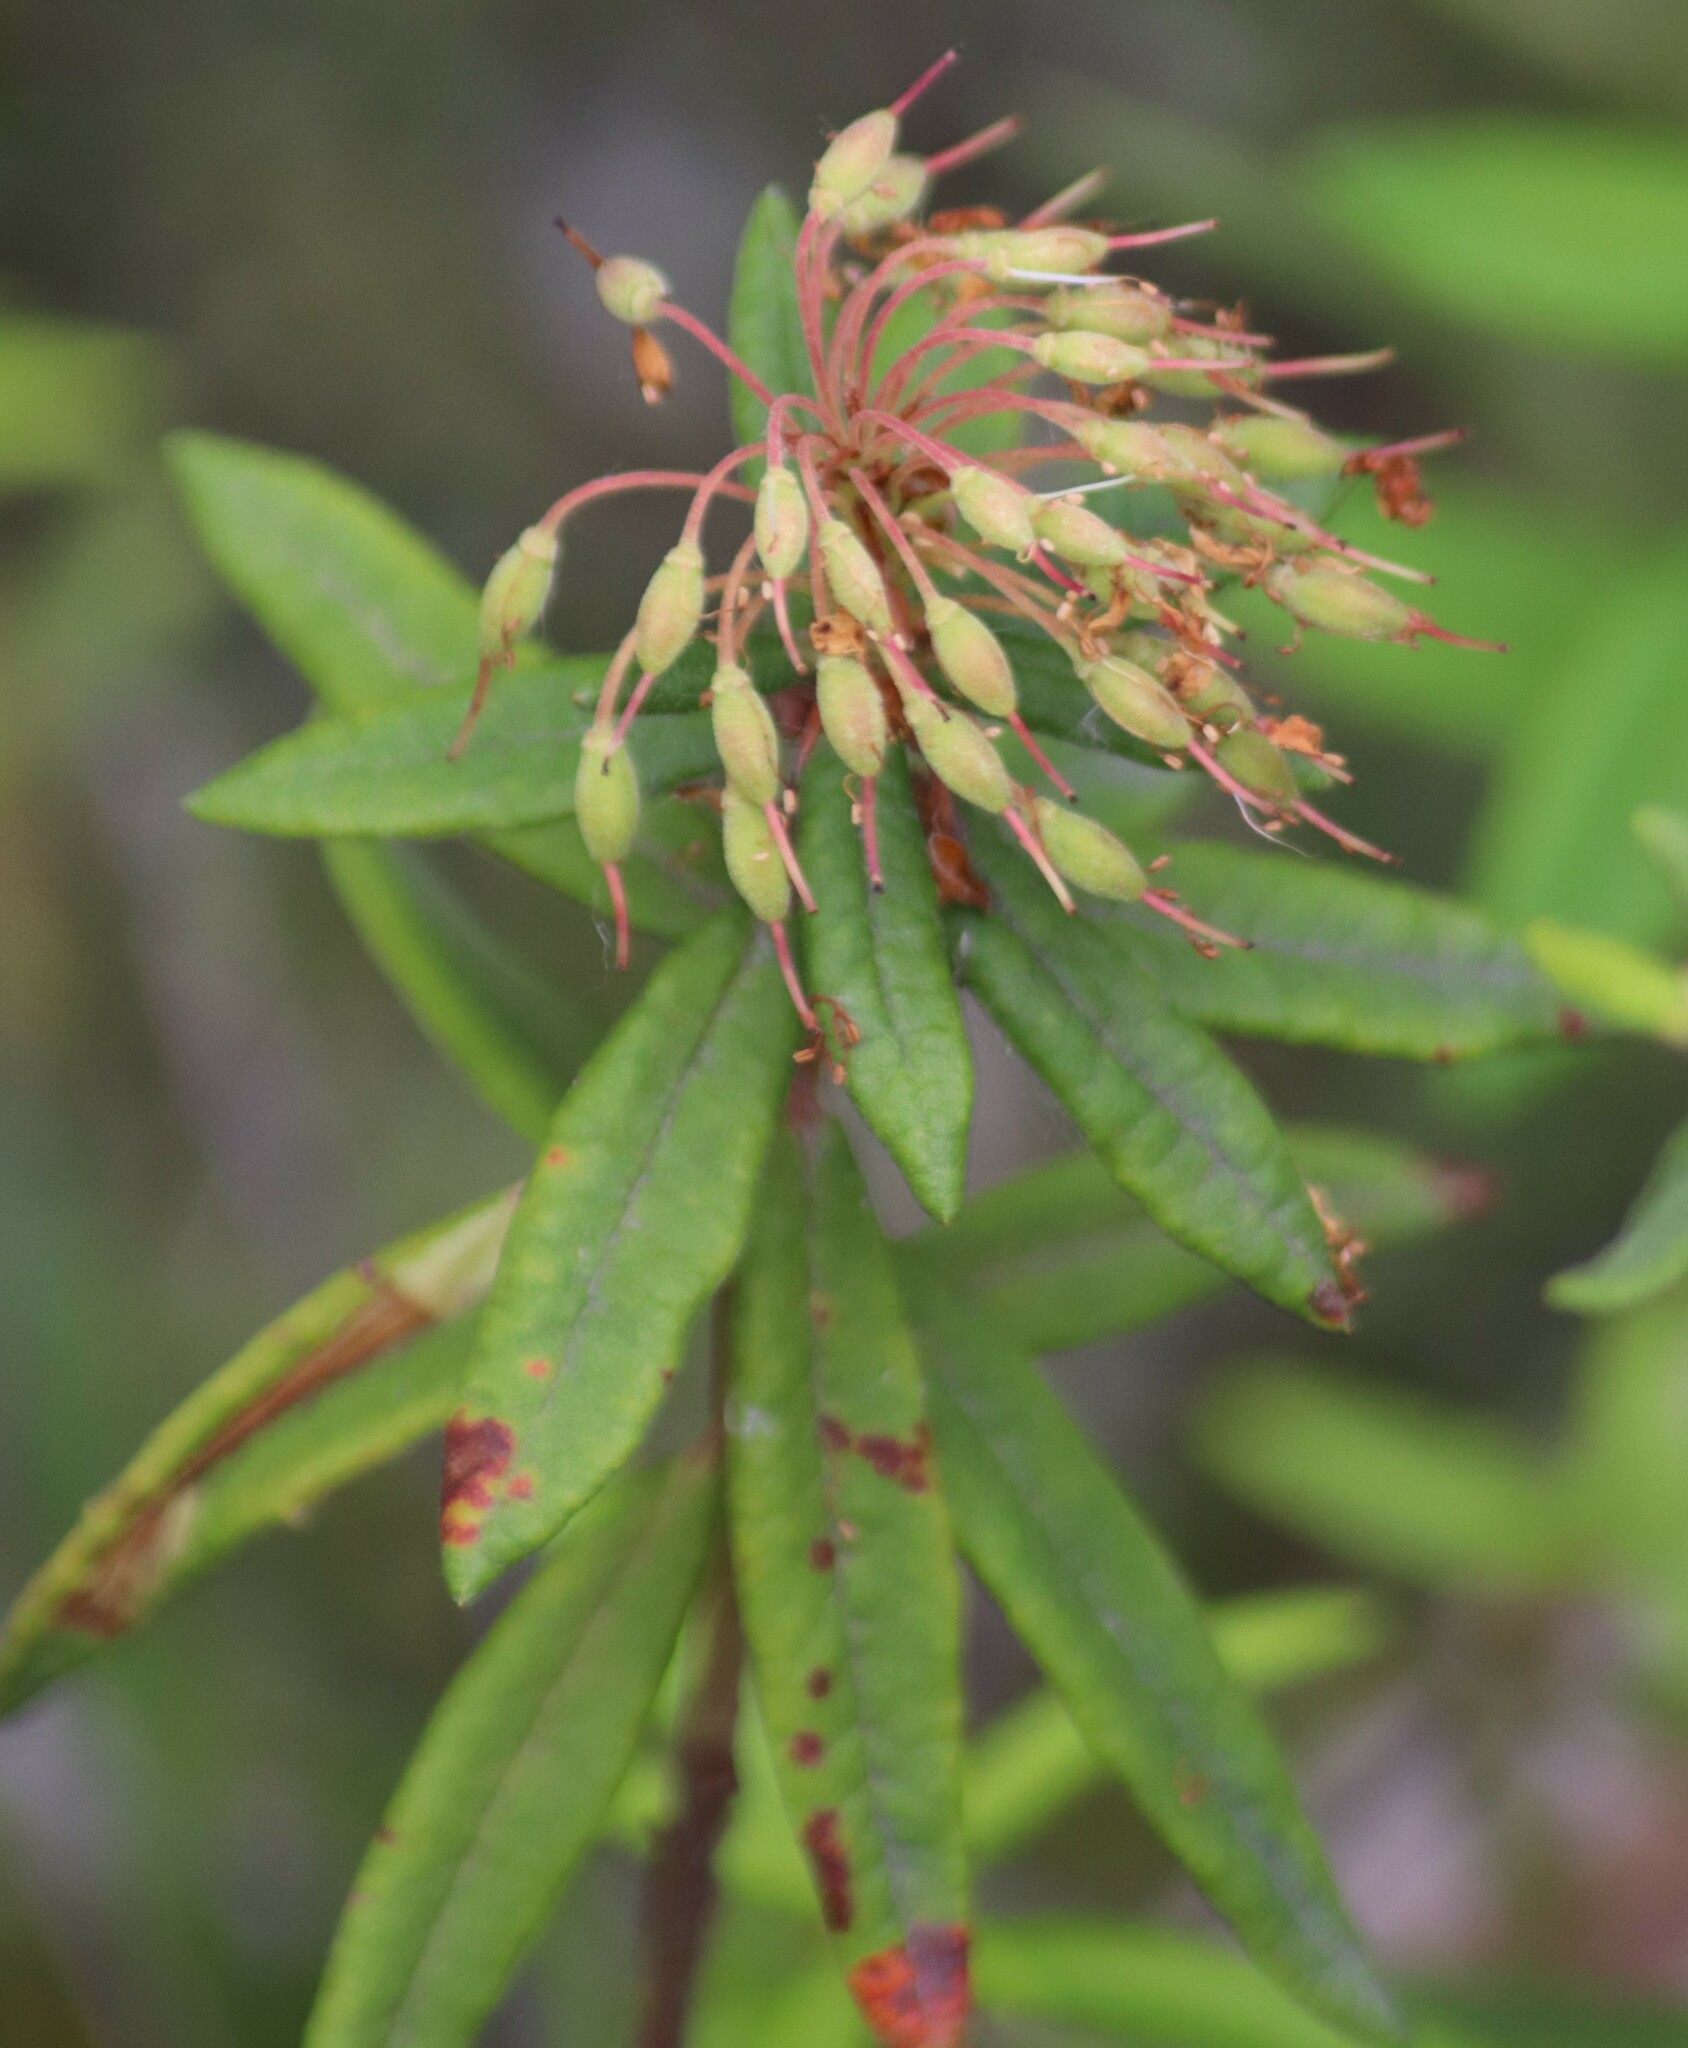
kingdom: Plantae
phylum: Tracheophyta
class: Magnoliopsida
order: Ericales
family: Ericaceae
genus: Rhododendron
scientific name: Rhododendron groenlandicum
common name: Bog labrador tea
